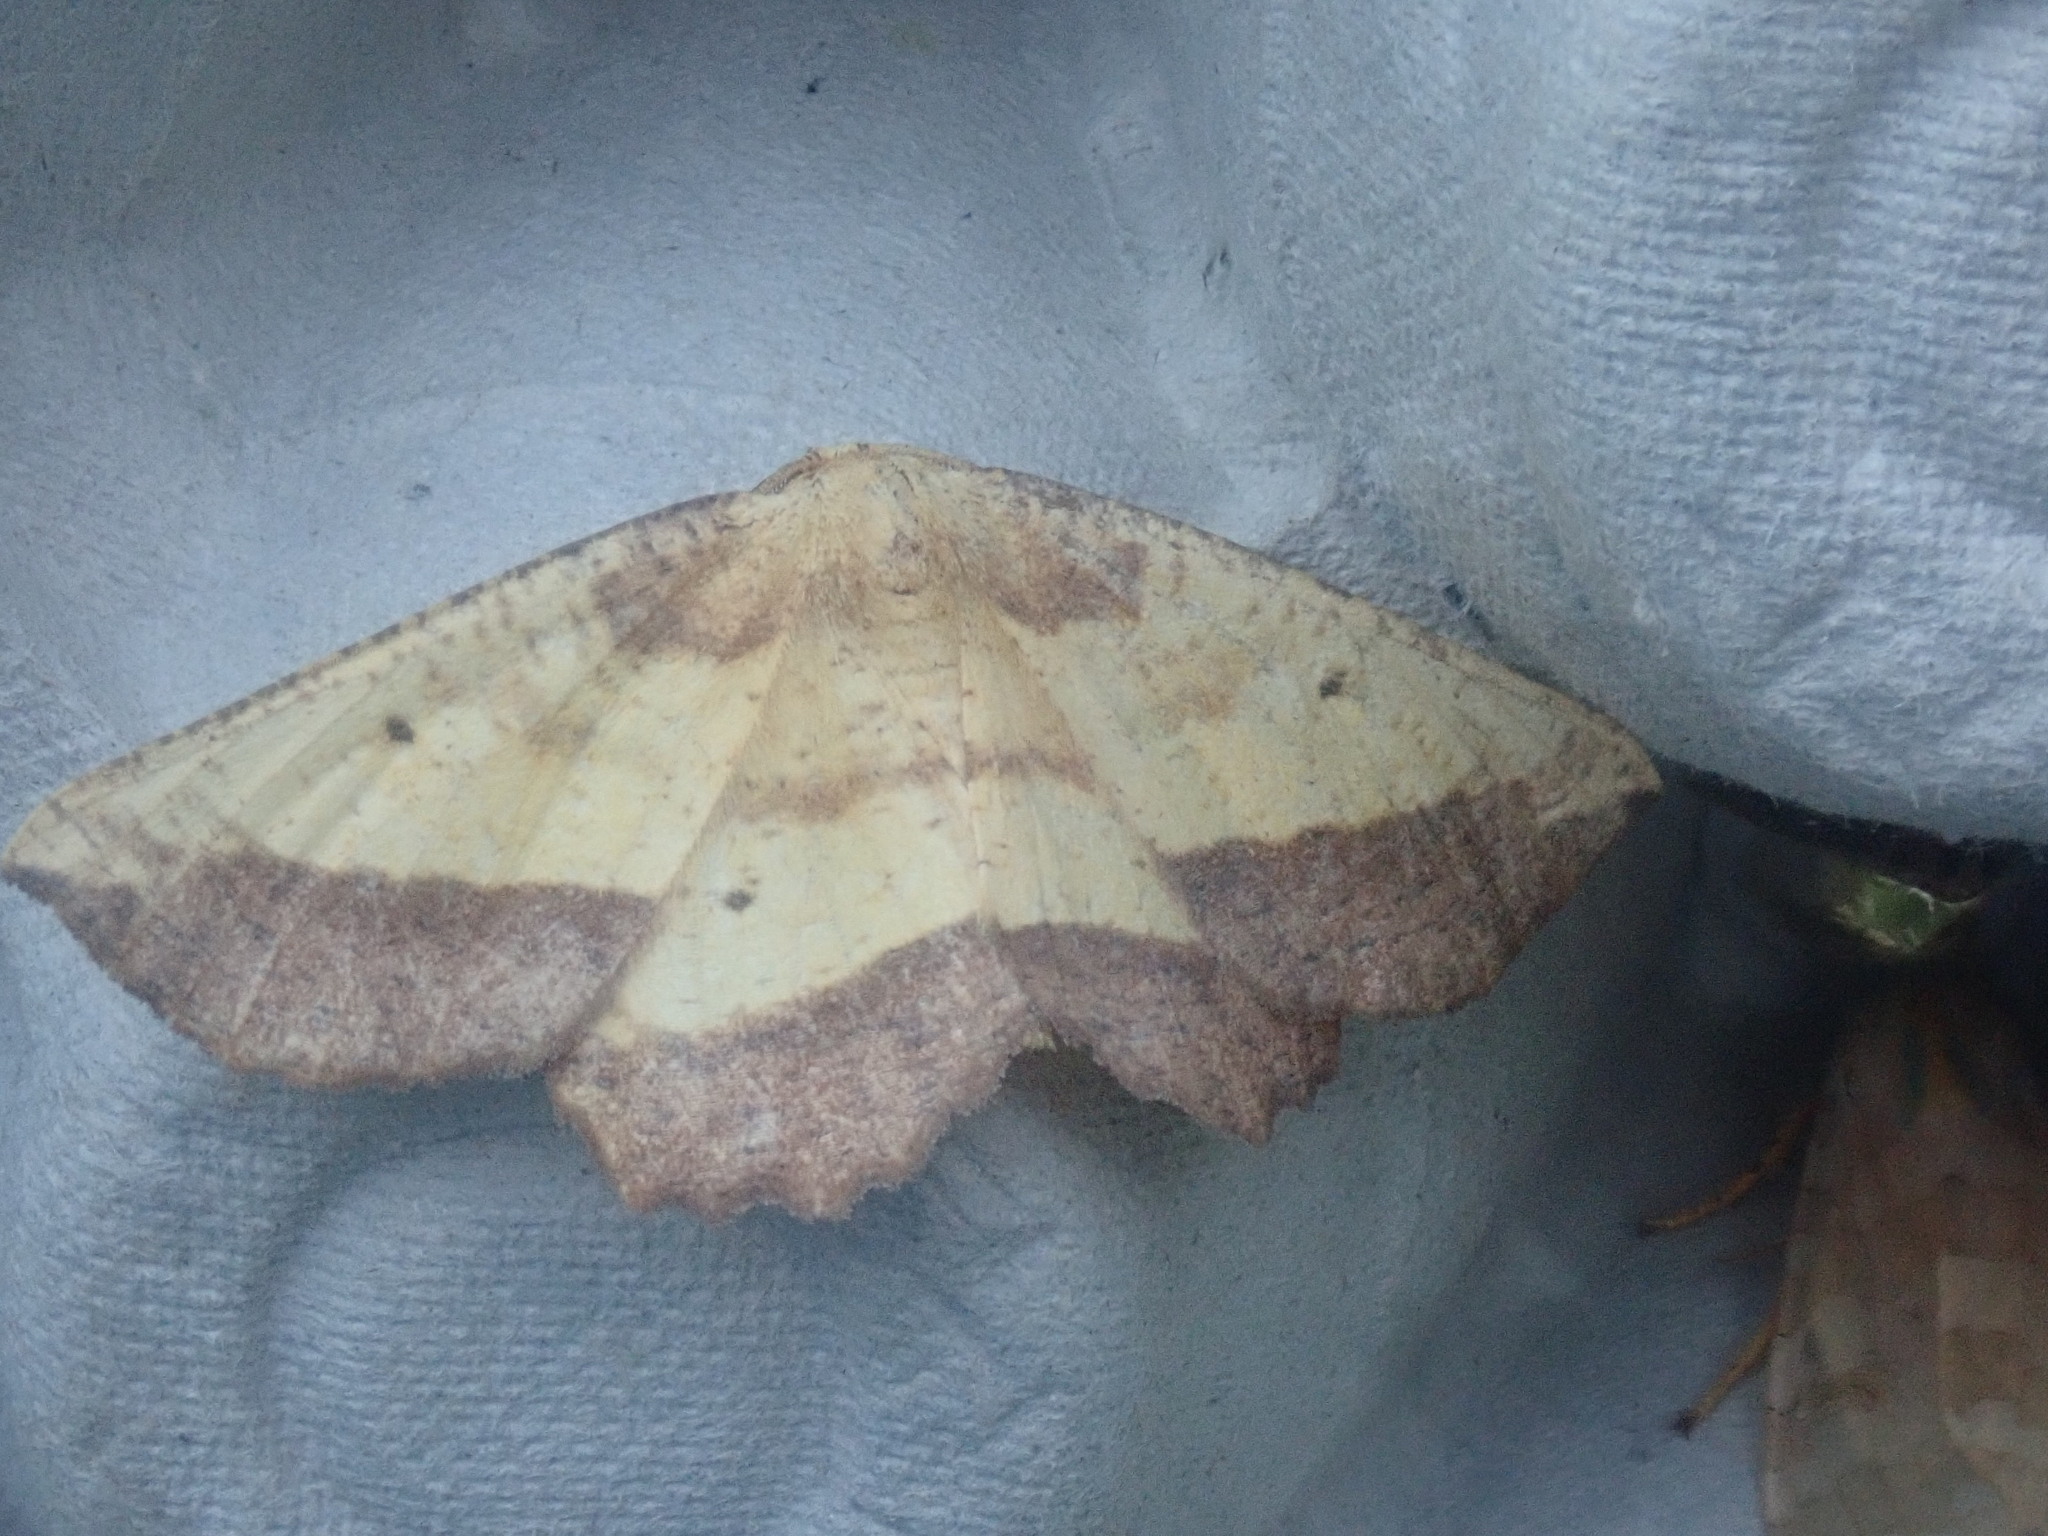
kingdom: Animalia
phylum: Arthropoda
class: Insecta
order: Lepidoptera
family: Geometridae
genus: Euchlaena
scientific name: Euchlaena serrata
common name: Saw wing
